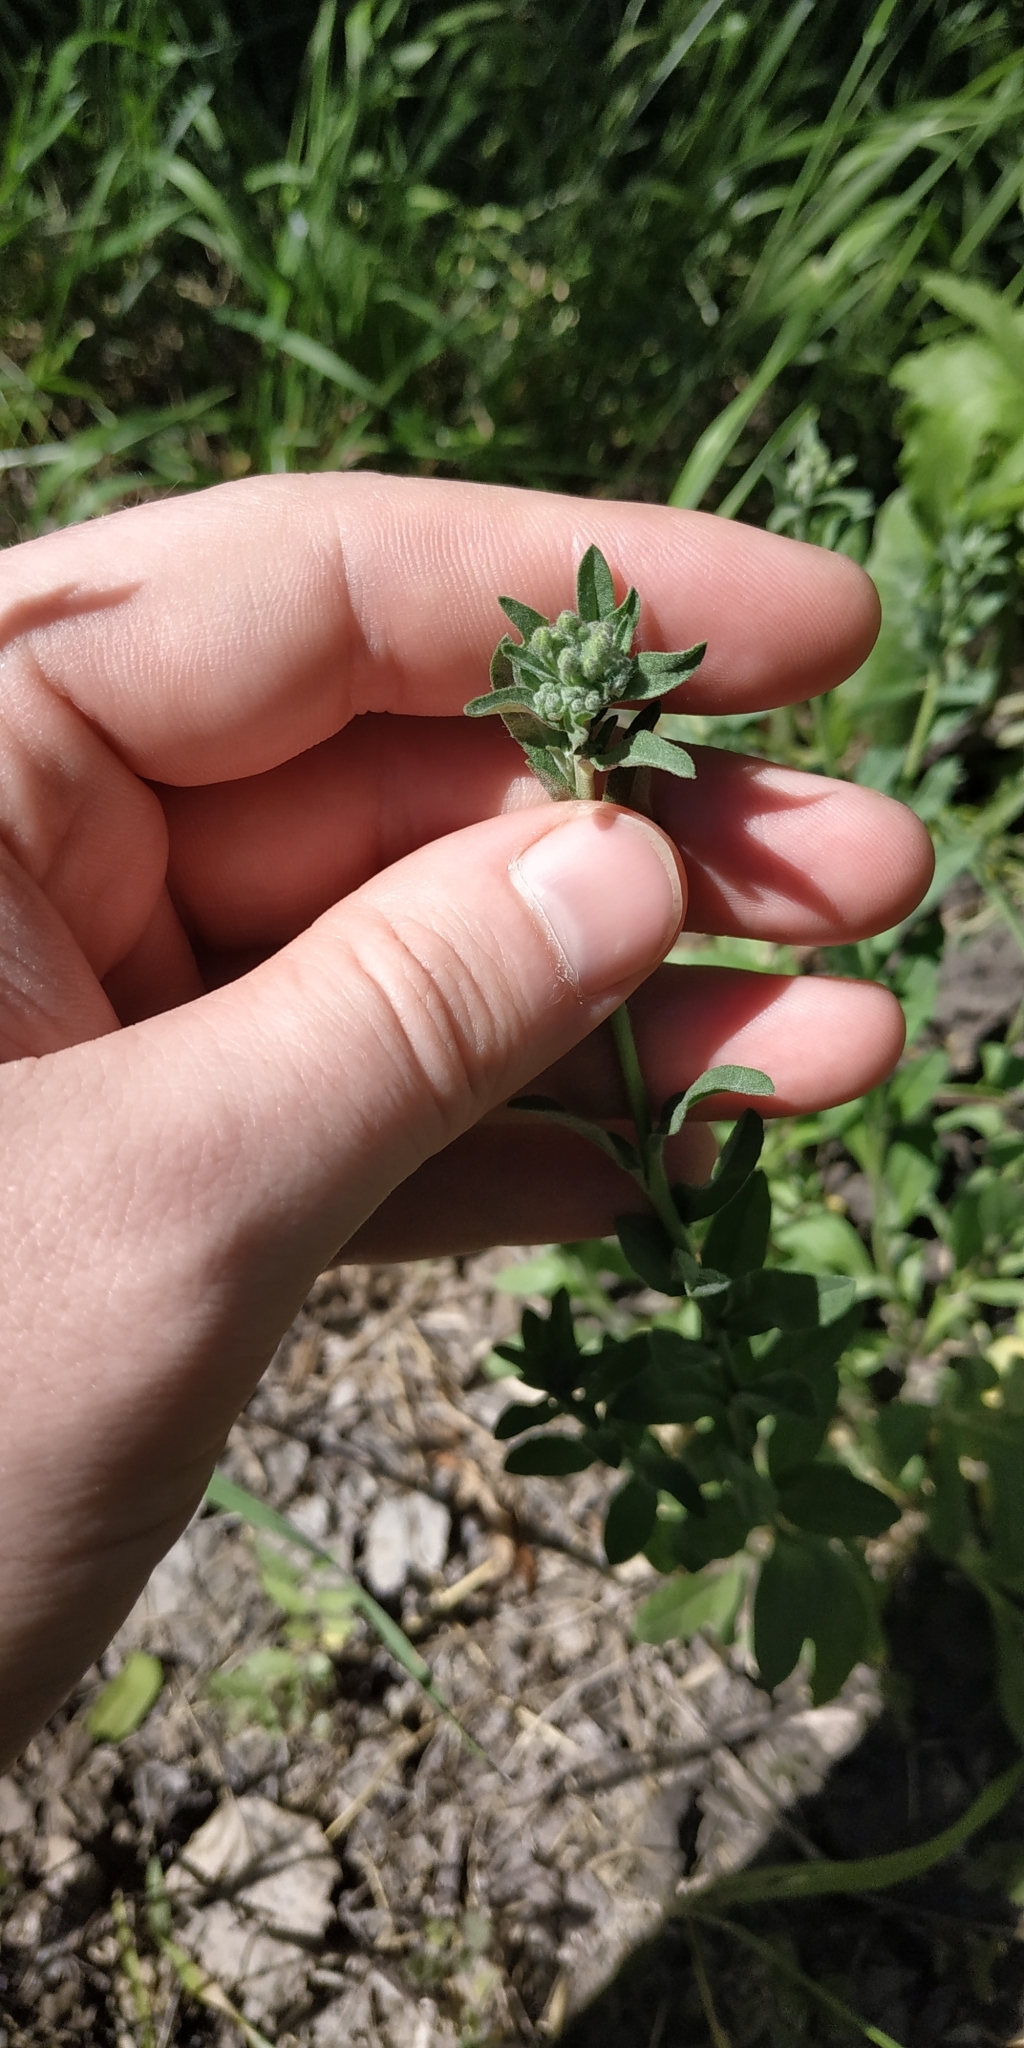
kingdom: Plantae
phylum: Tracheophyta
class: Magnoliopsida
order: Brassicales
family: Brassicaceae
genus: Berteroa
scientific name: Berteroa incana
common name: Hoary alison
